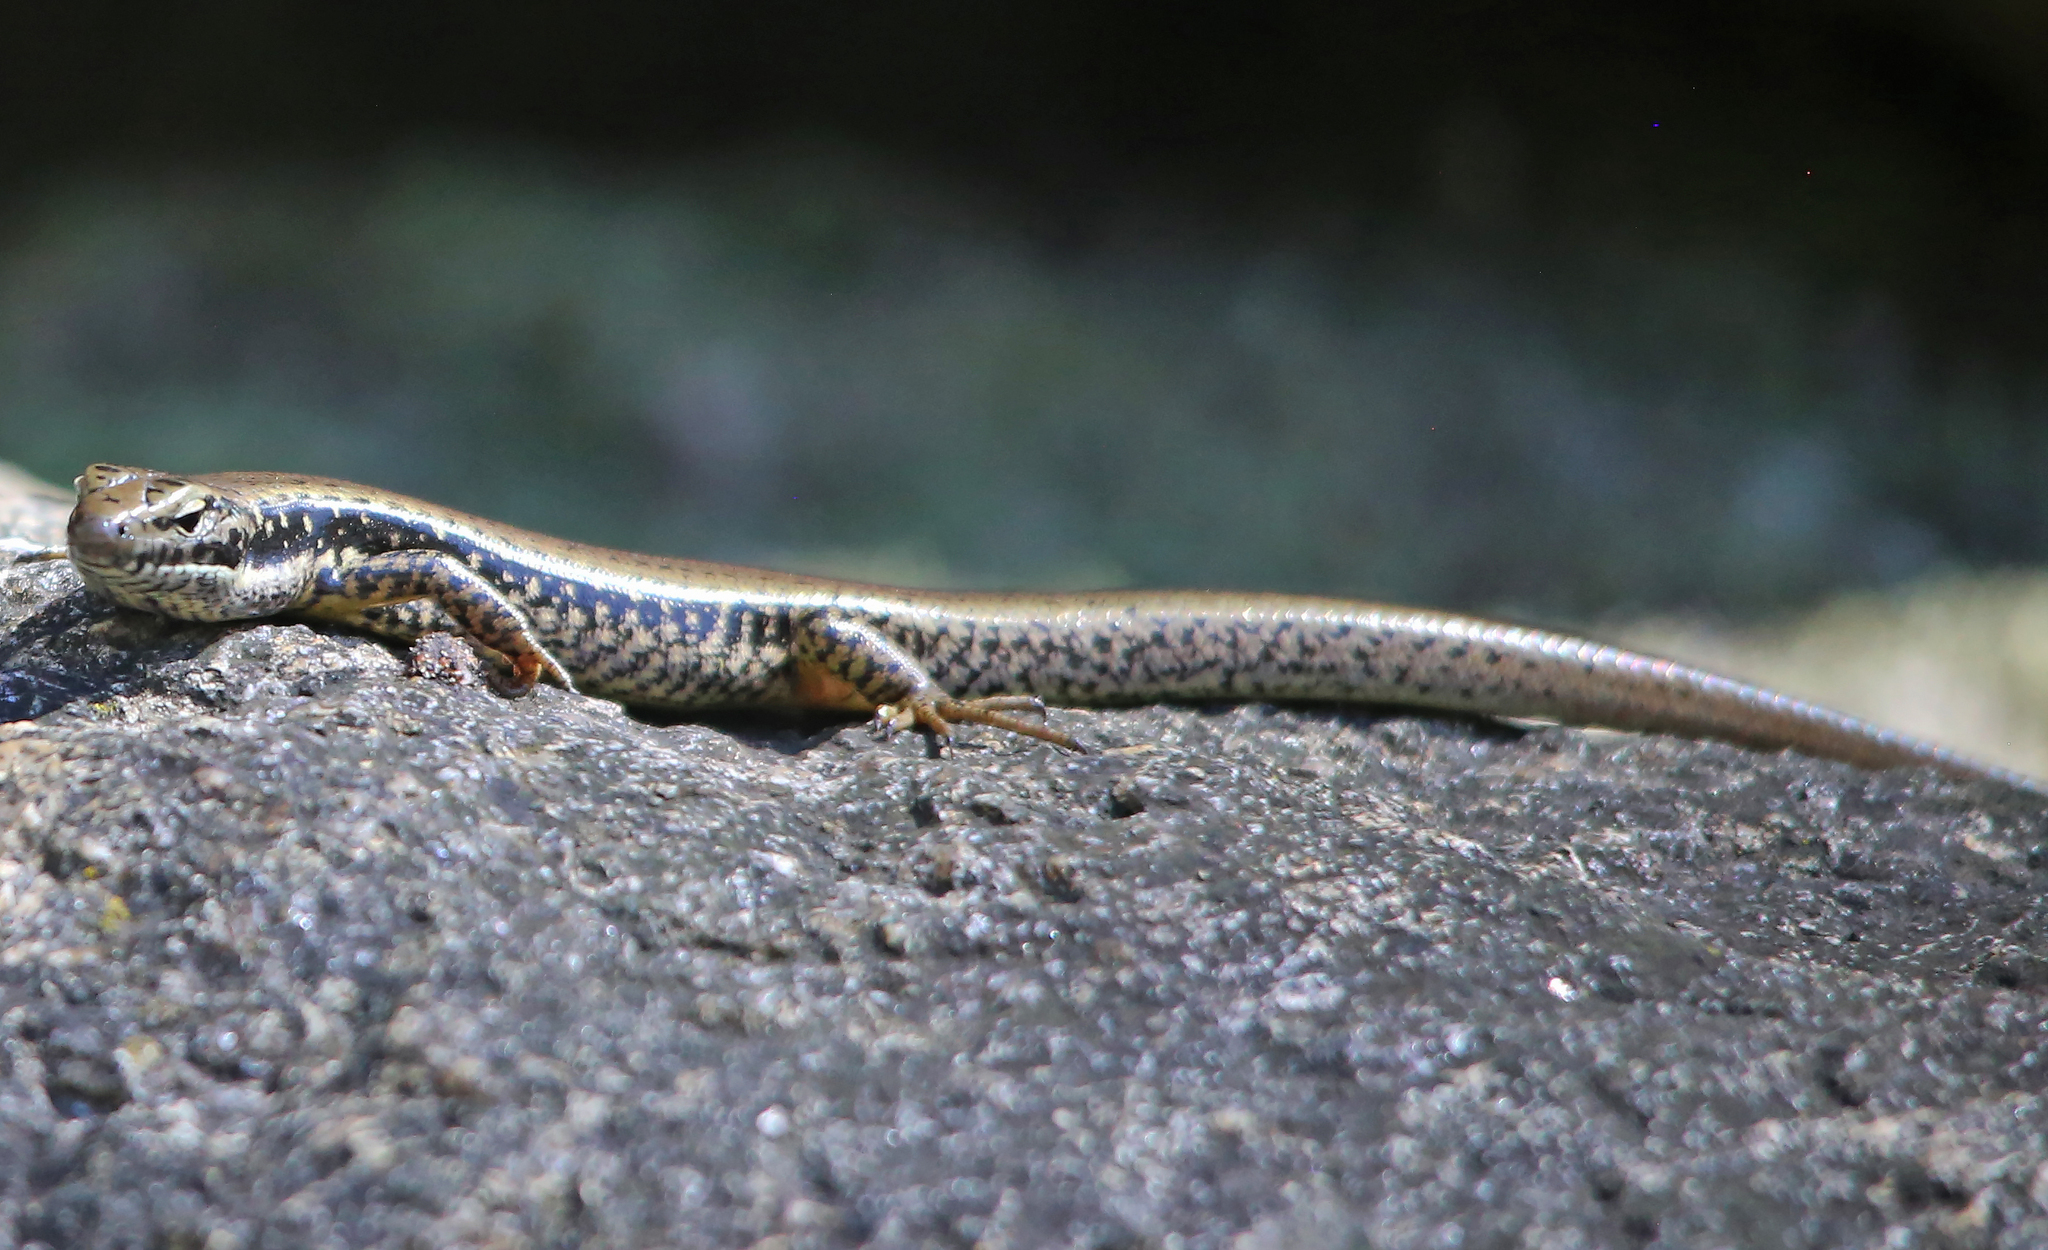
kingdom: Animalia
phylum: Chordata
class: Squamata
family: Scincidae
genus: Eulamprus
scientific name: Eulamprus heatwolei
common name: Warm-temperate water-skink
